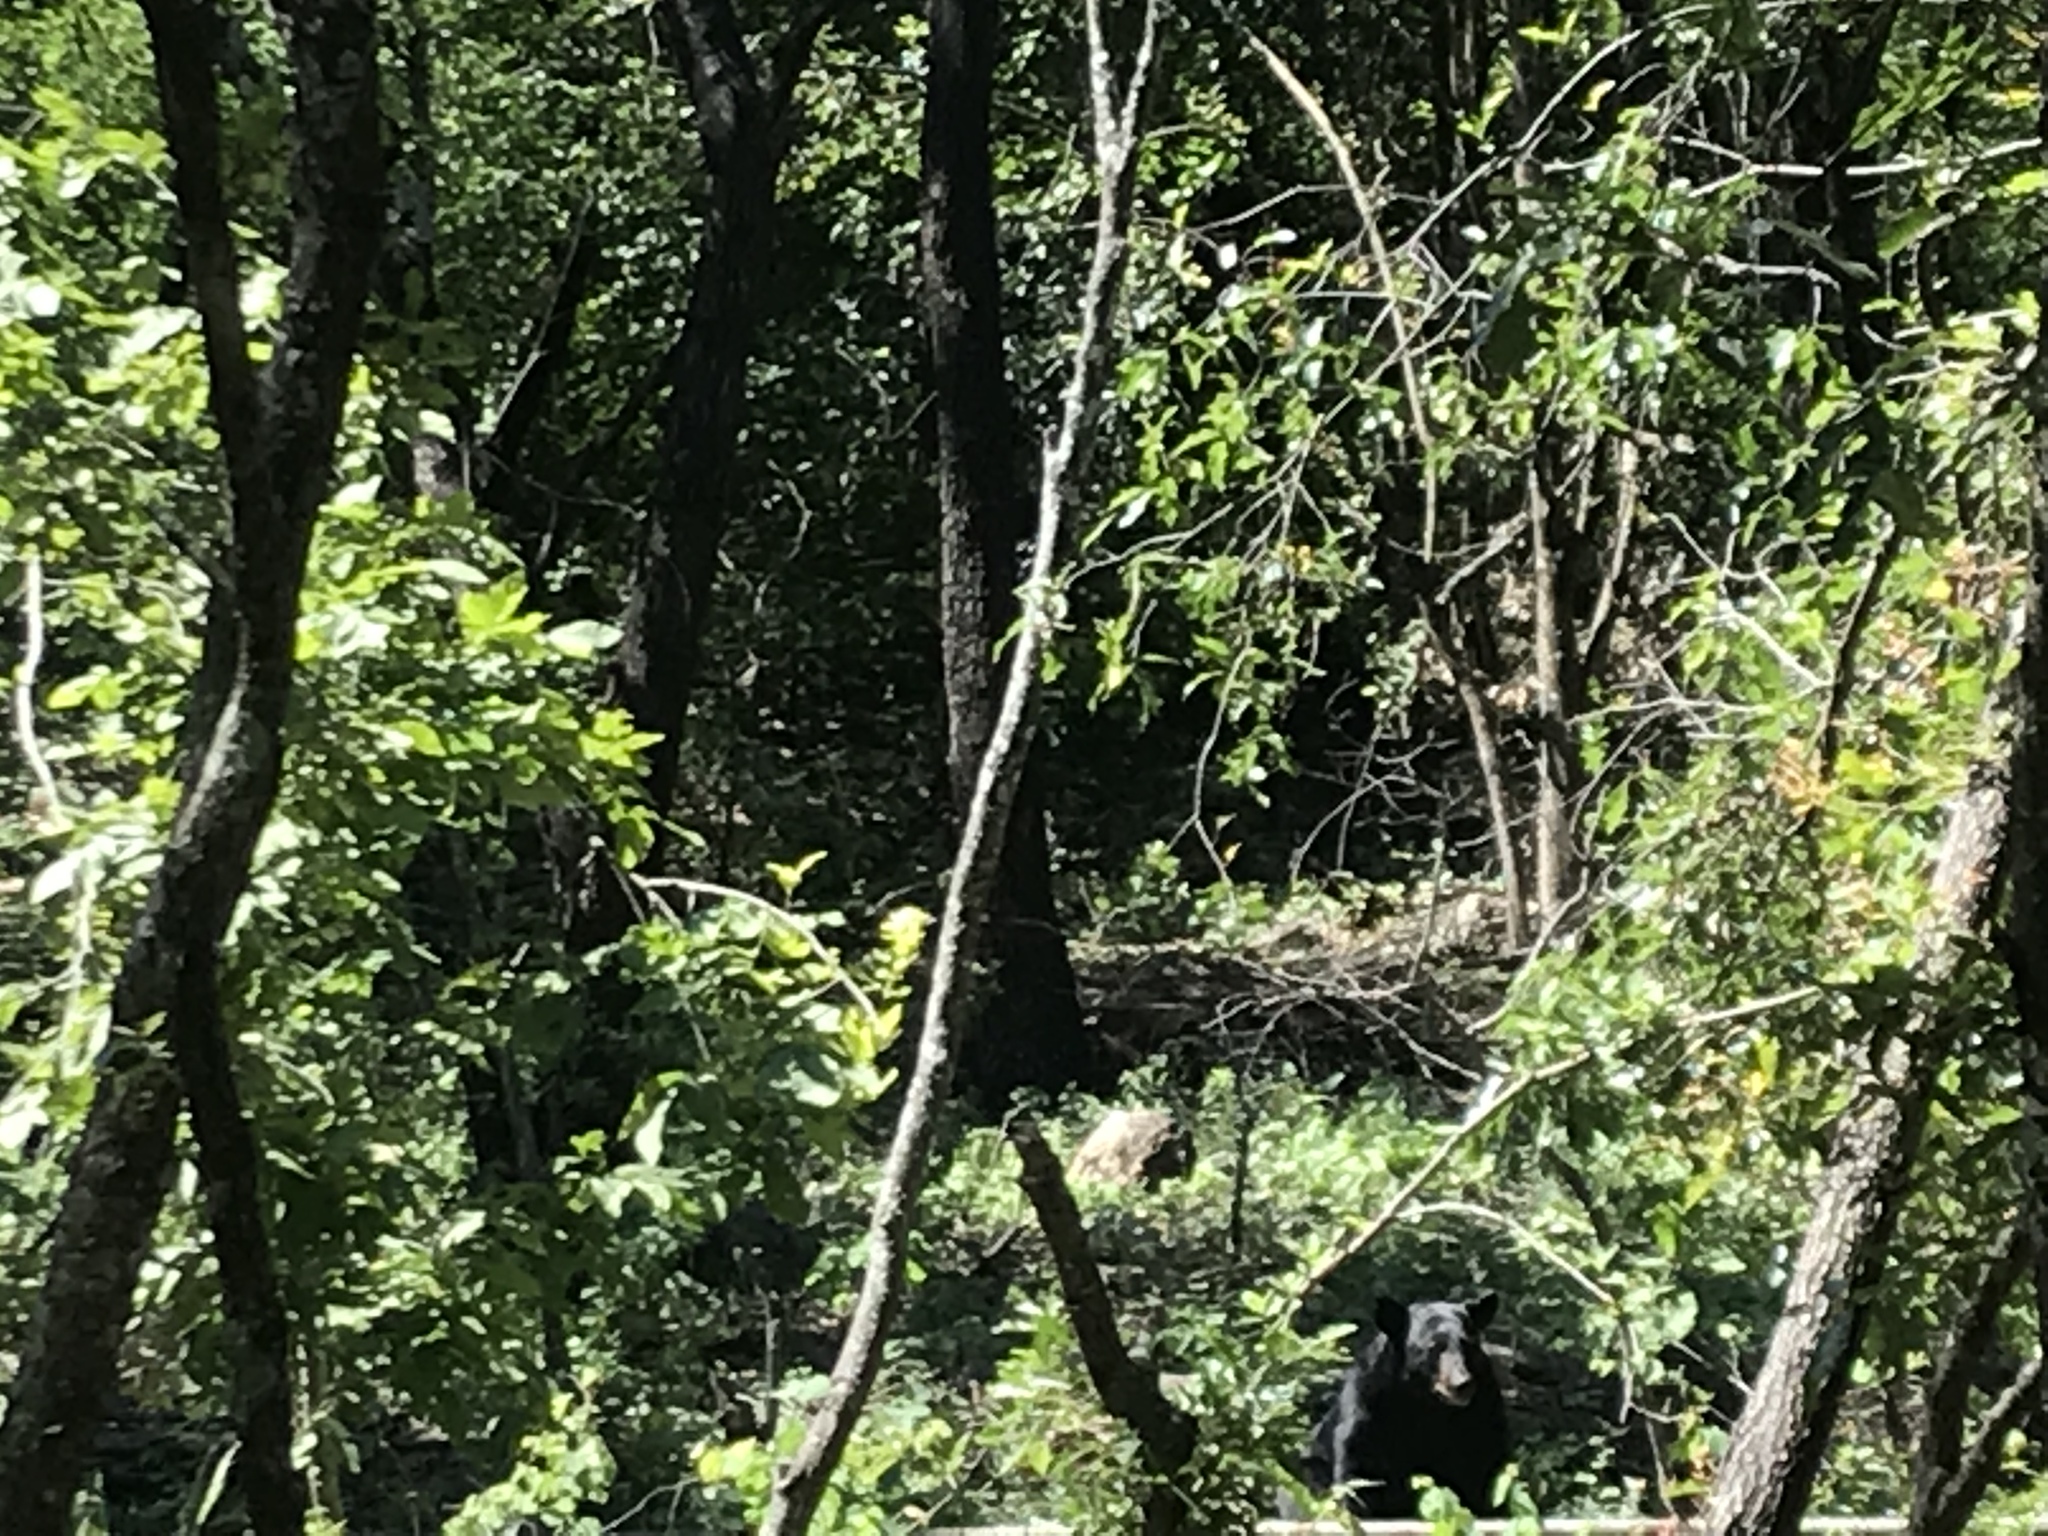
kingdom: Animalia
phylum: Chordata
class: Mammalia
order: Carnivora
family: Ursidae
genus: Ursus
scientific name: Ursus americanus
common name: American black bear
